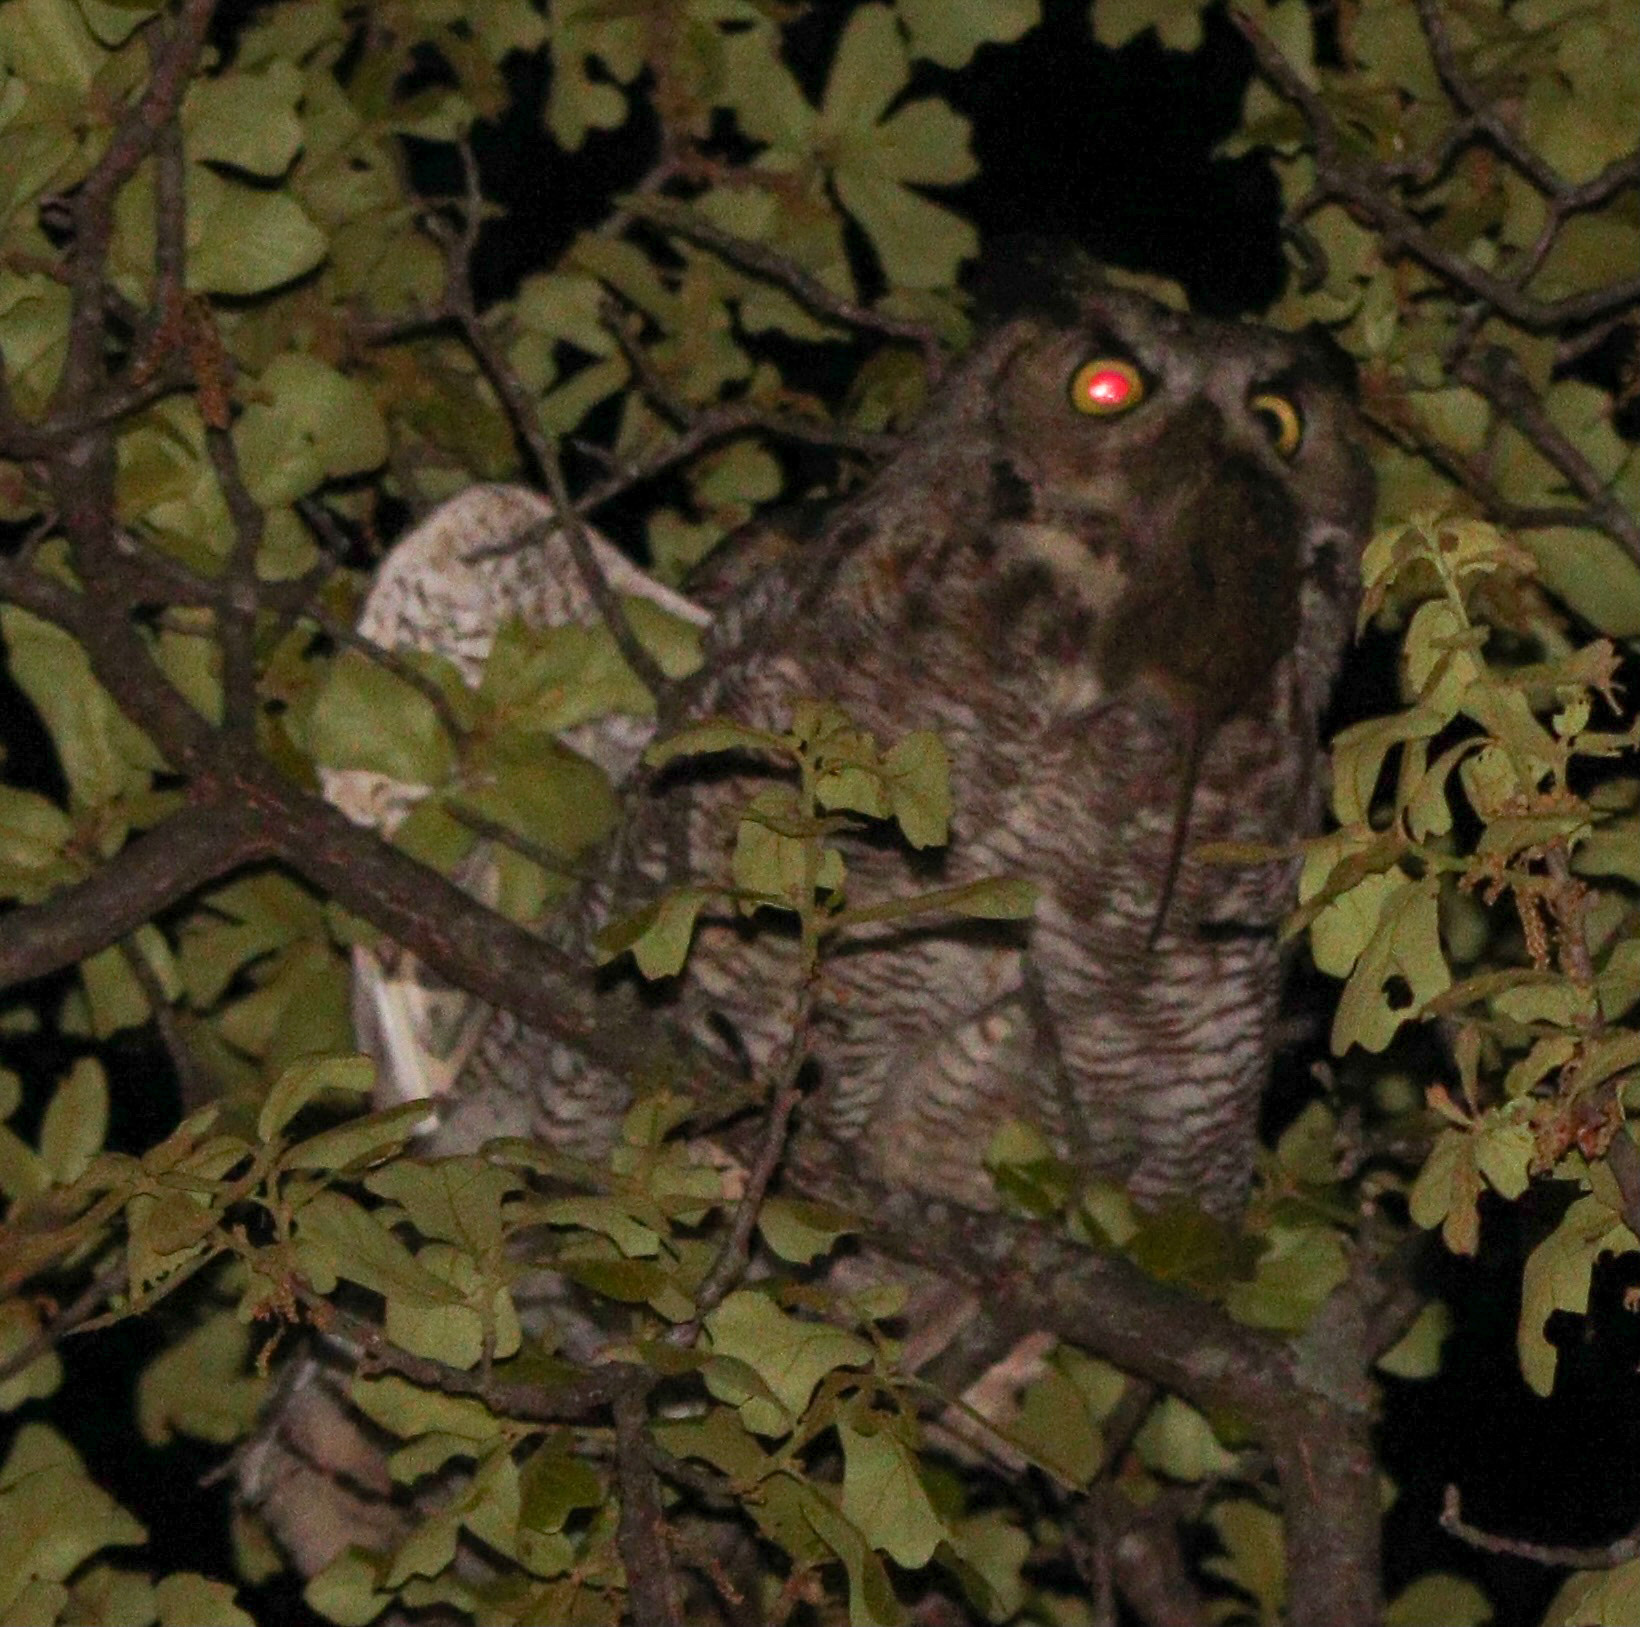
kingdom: Animalia
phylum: Chordata
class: Aves
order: Strigiformes
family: Strigidae
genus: Bubo
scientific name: Bubo virginianus
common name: Great horned owl
